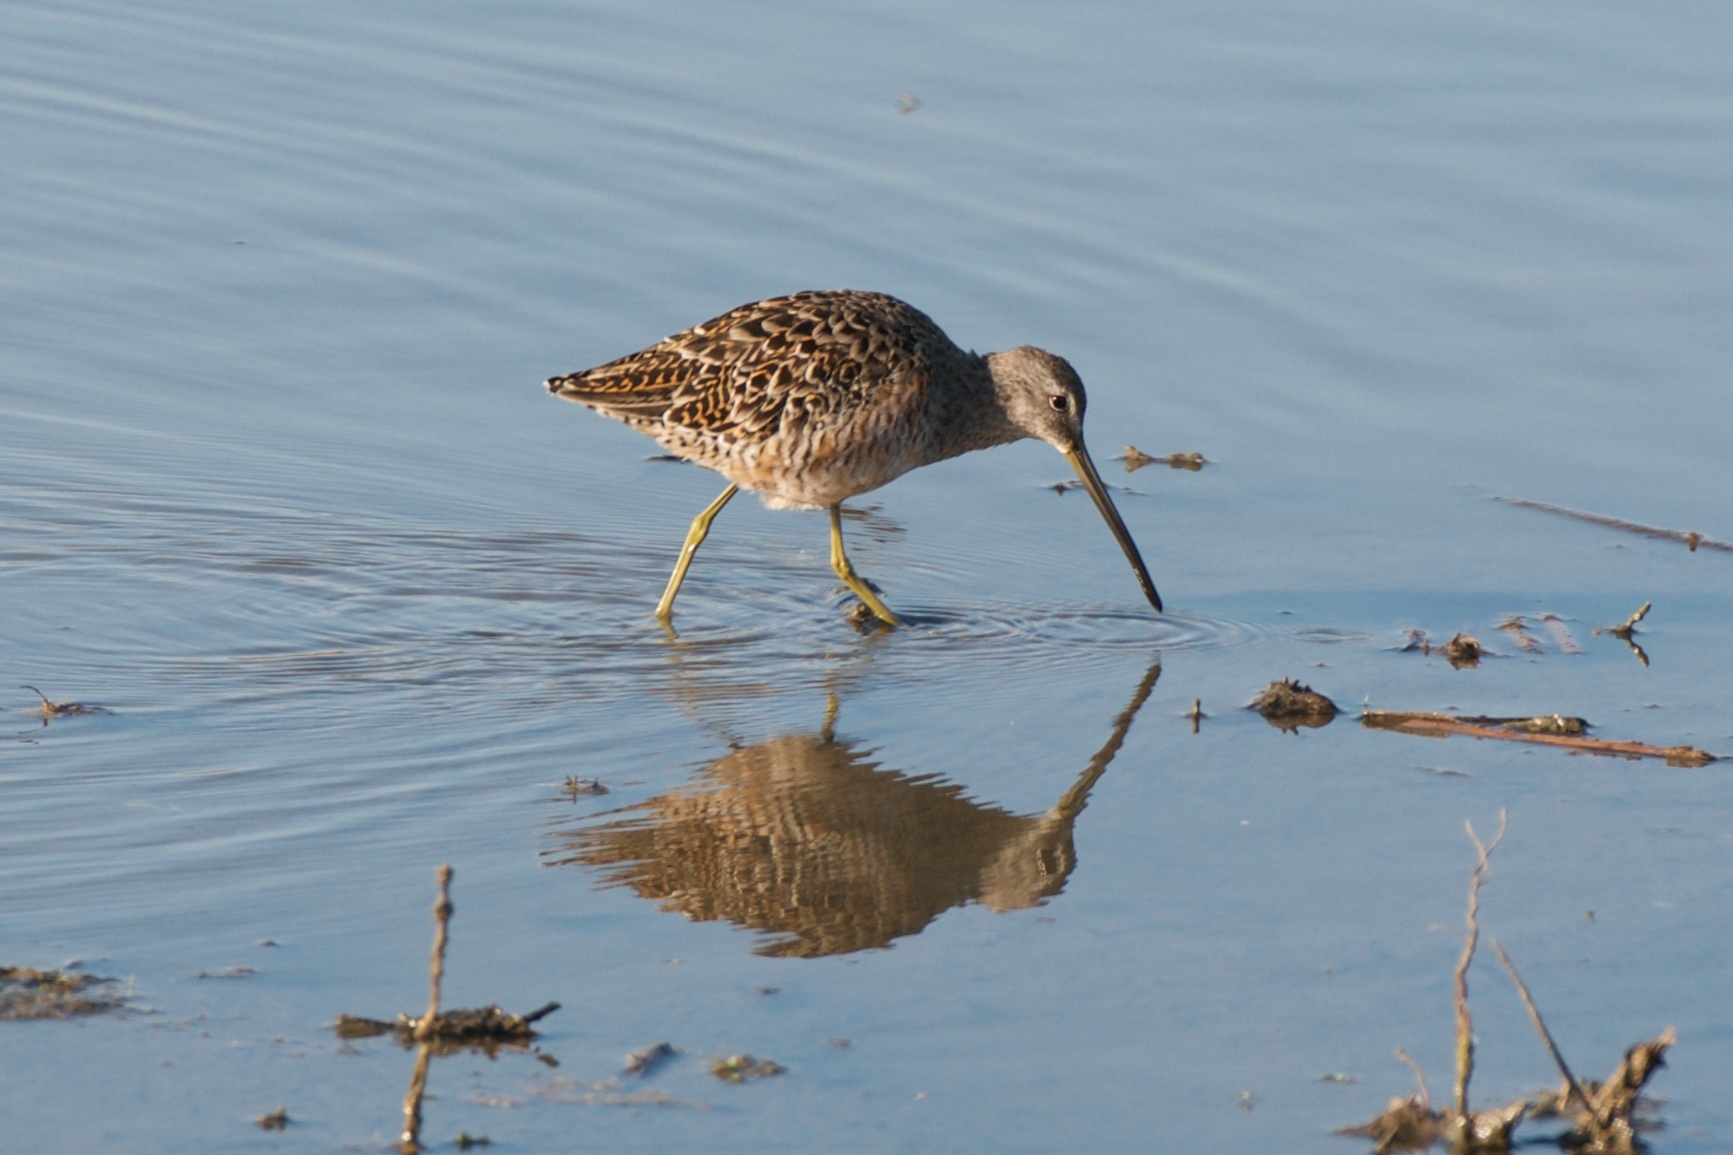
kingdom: Animalia
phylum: Chordata
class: Aves
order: Charadriiformes
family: Scolopacidae
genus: Limnodromus
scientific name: Limnodromus scolopaceus
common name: Long-billed dowitcher
